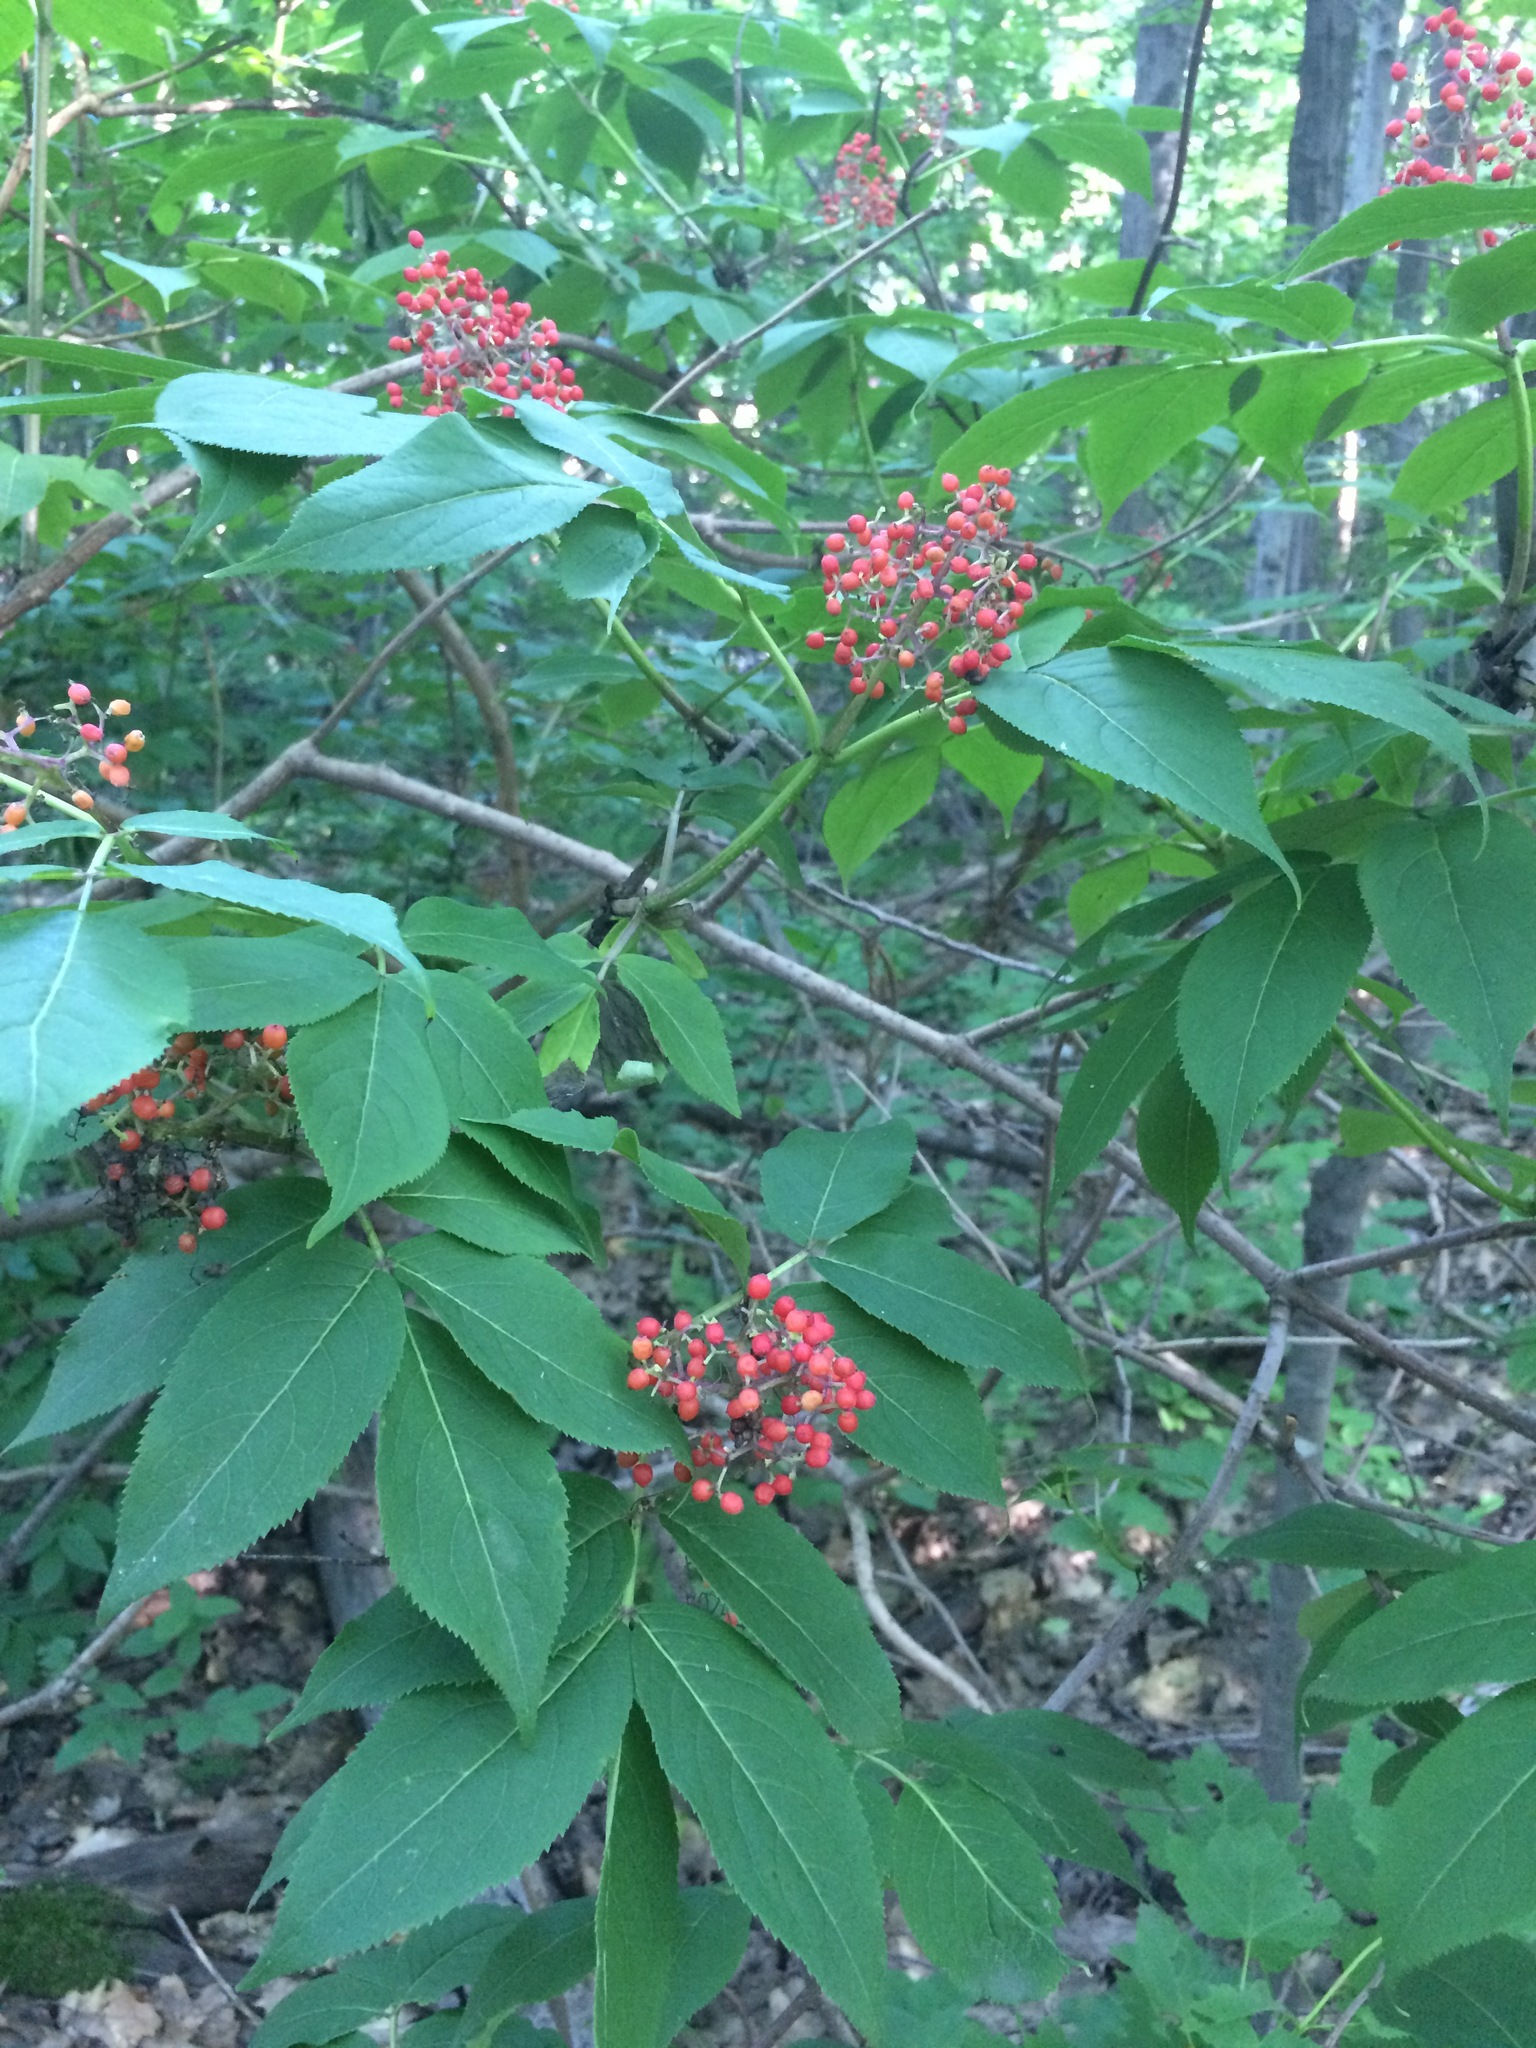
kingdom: Plantae
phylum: Tracheophyta
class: Magnoliopsida
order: Dipsacales
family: Viburnaceae
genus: Sambucus
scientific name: Sambucus racemosa
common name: Red-berried elder
